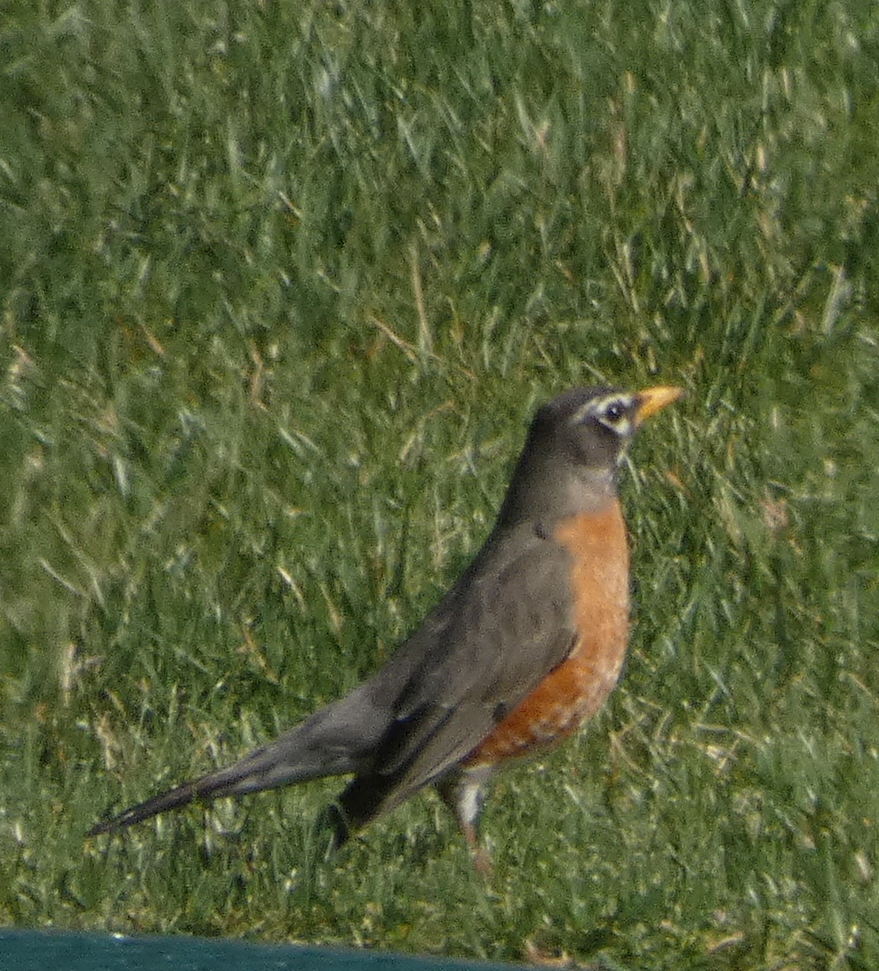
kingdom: Animalia
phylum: Chordata
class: Aves
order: Passeriformes
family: Turdidae
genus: Turdus
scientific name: Turdus migratorius
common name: American robin
